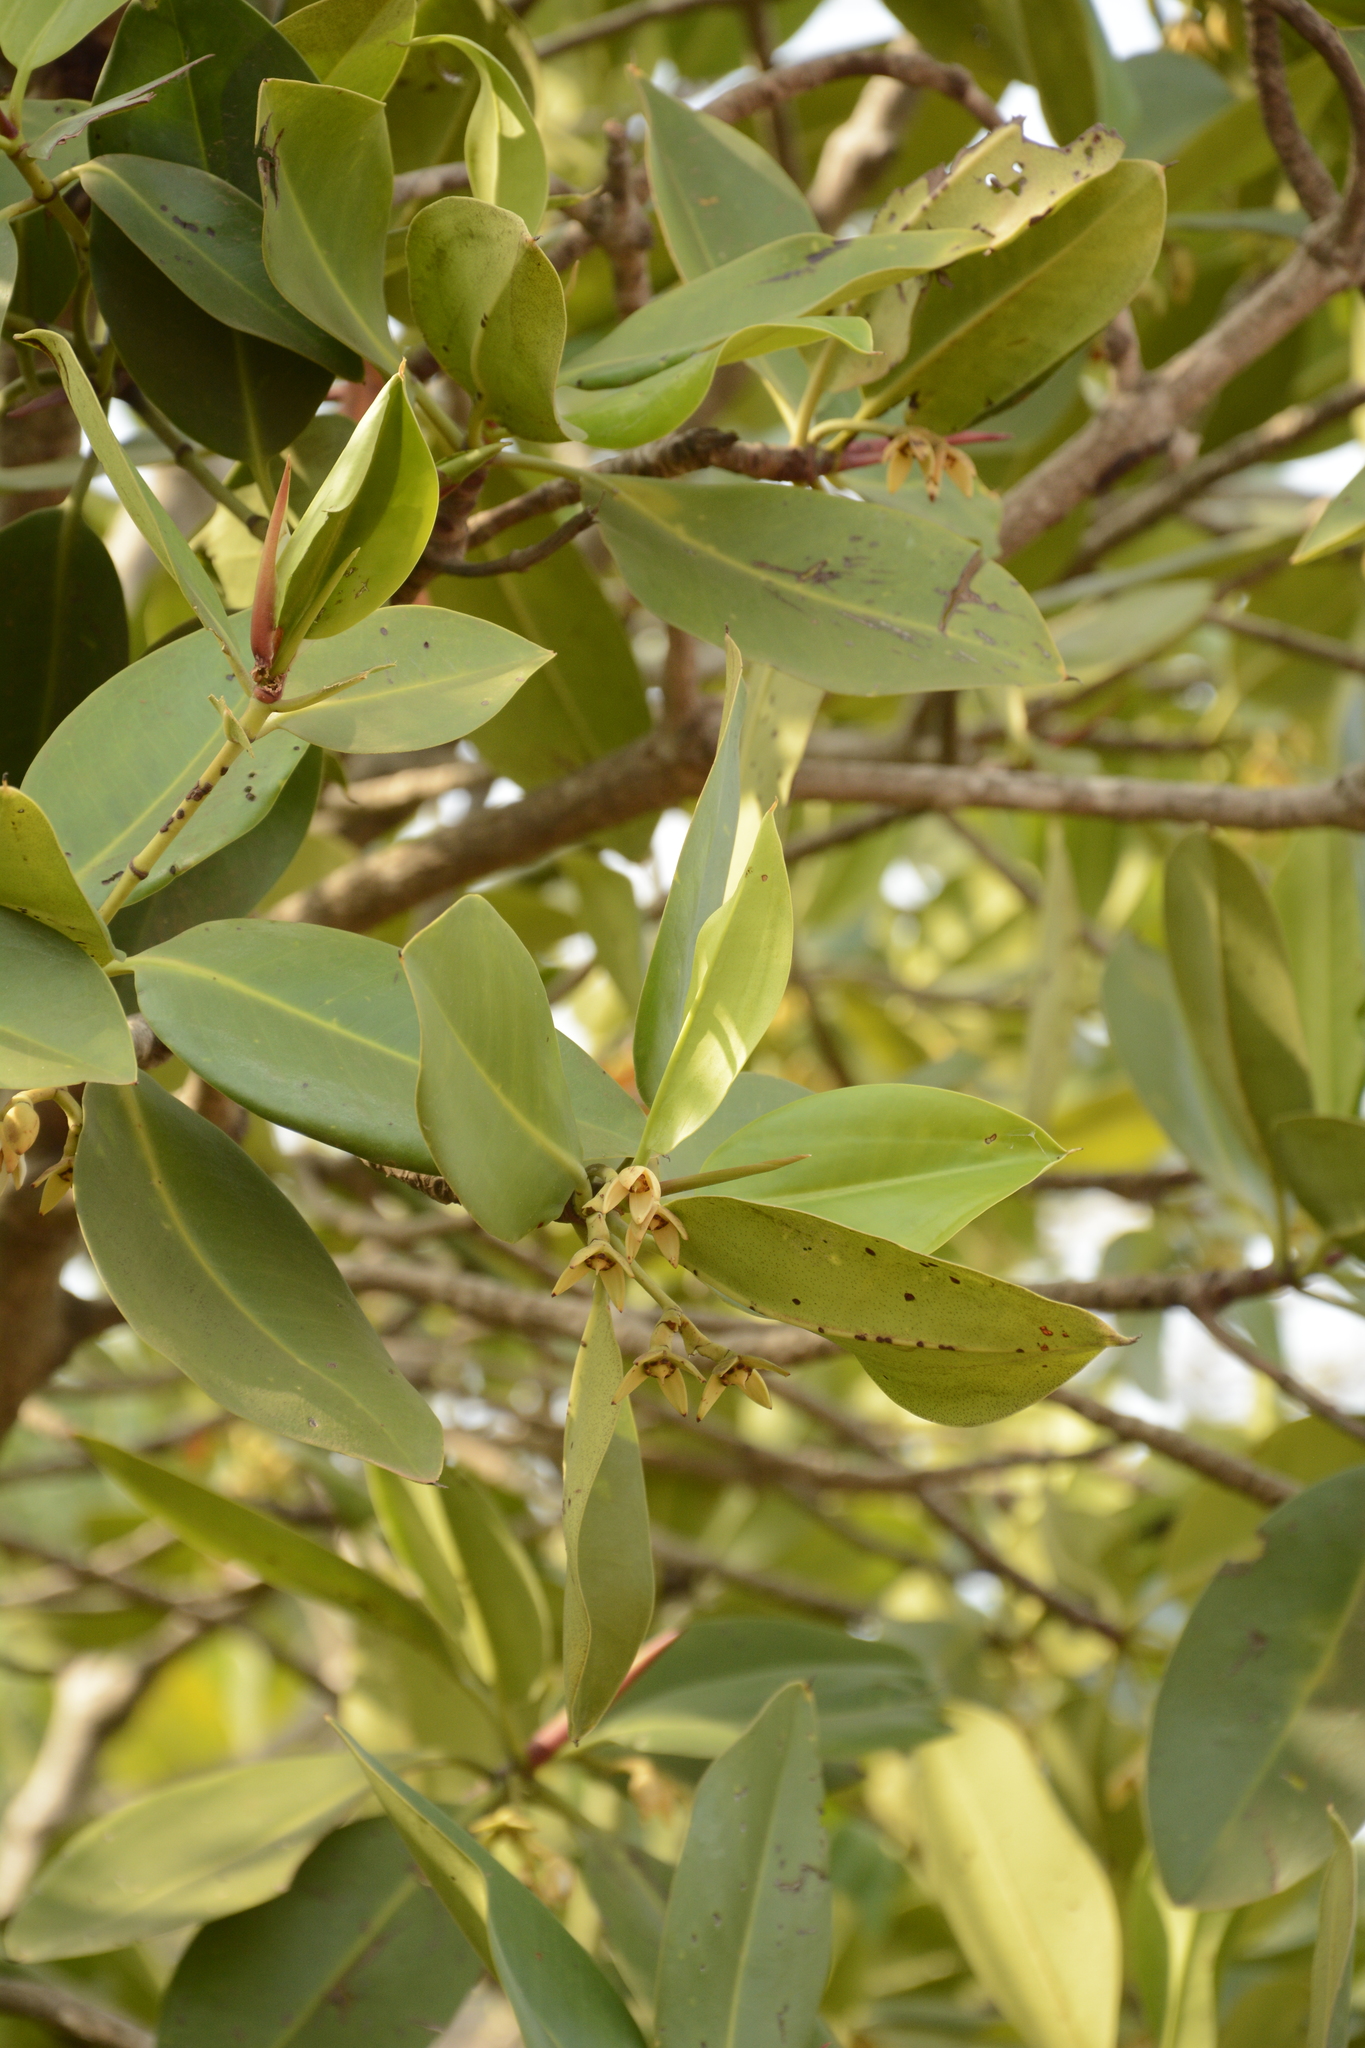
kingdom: Plantae
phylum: Tracheophyta
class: Magnoliopsida
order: Malpighiales
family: Rhizophoraceae
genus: Rhizophora
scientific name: Rhizophora mucronata
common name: Loop-root mangrove
